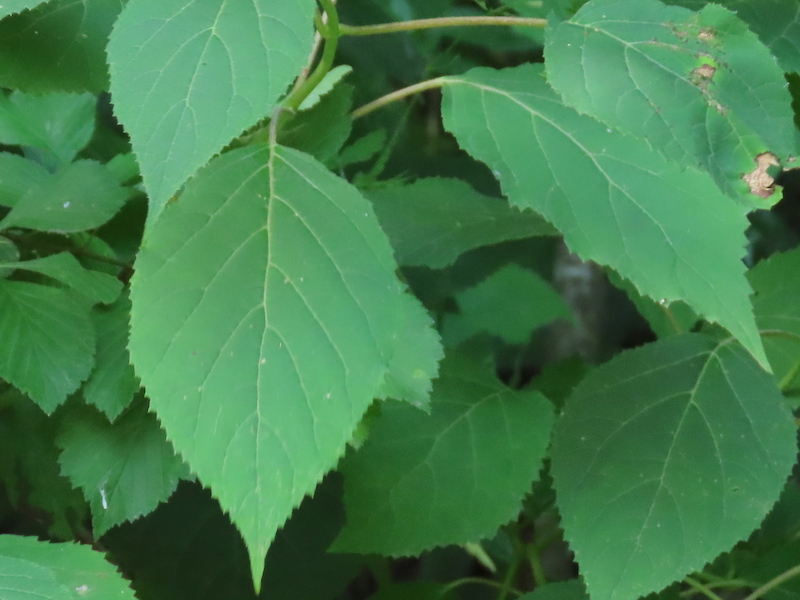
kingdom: Plantae
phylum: Tracheophyta
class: Magnoliopsida
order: Cornales
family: Hydrangeaceae
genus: Hydrangea
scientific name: Hydrangea arborescens
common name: Sevenbark
